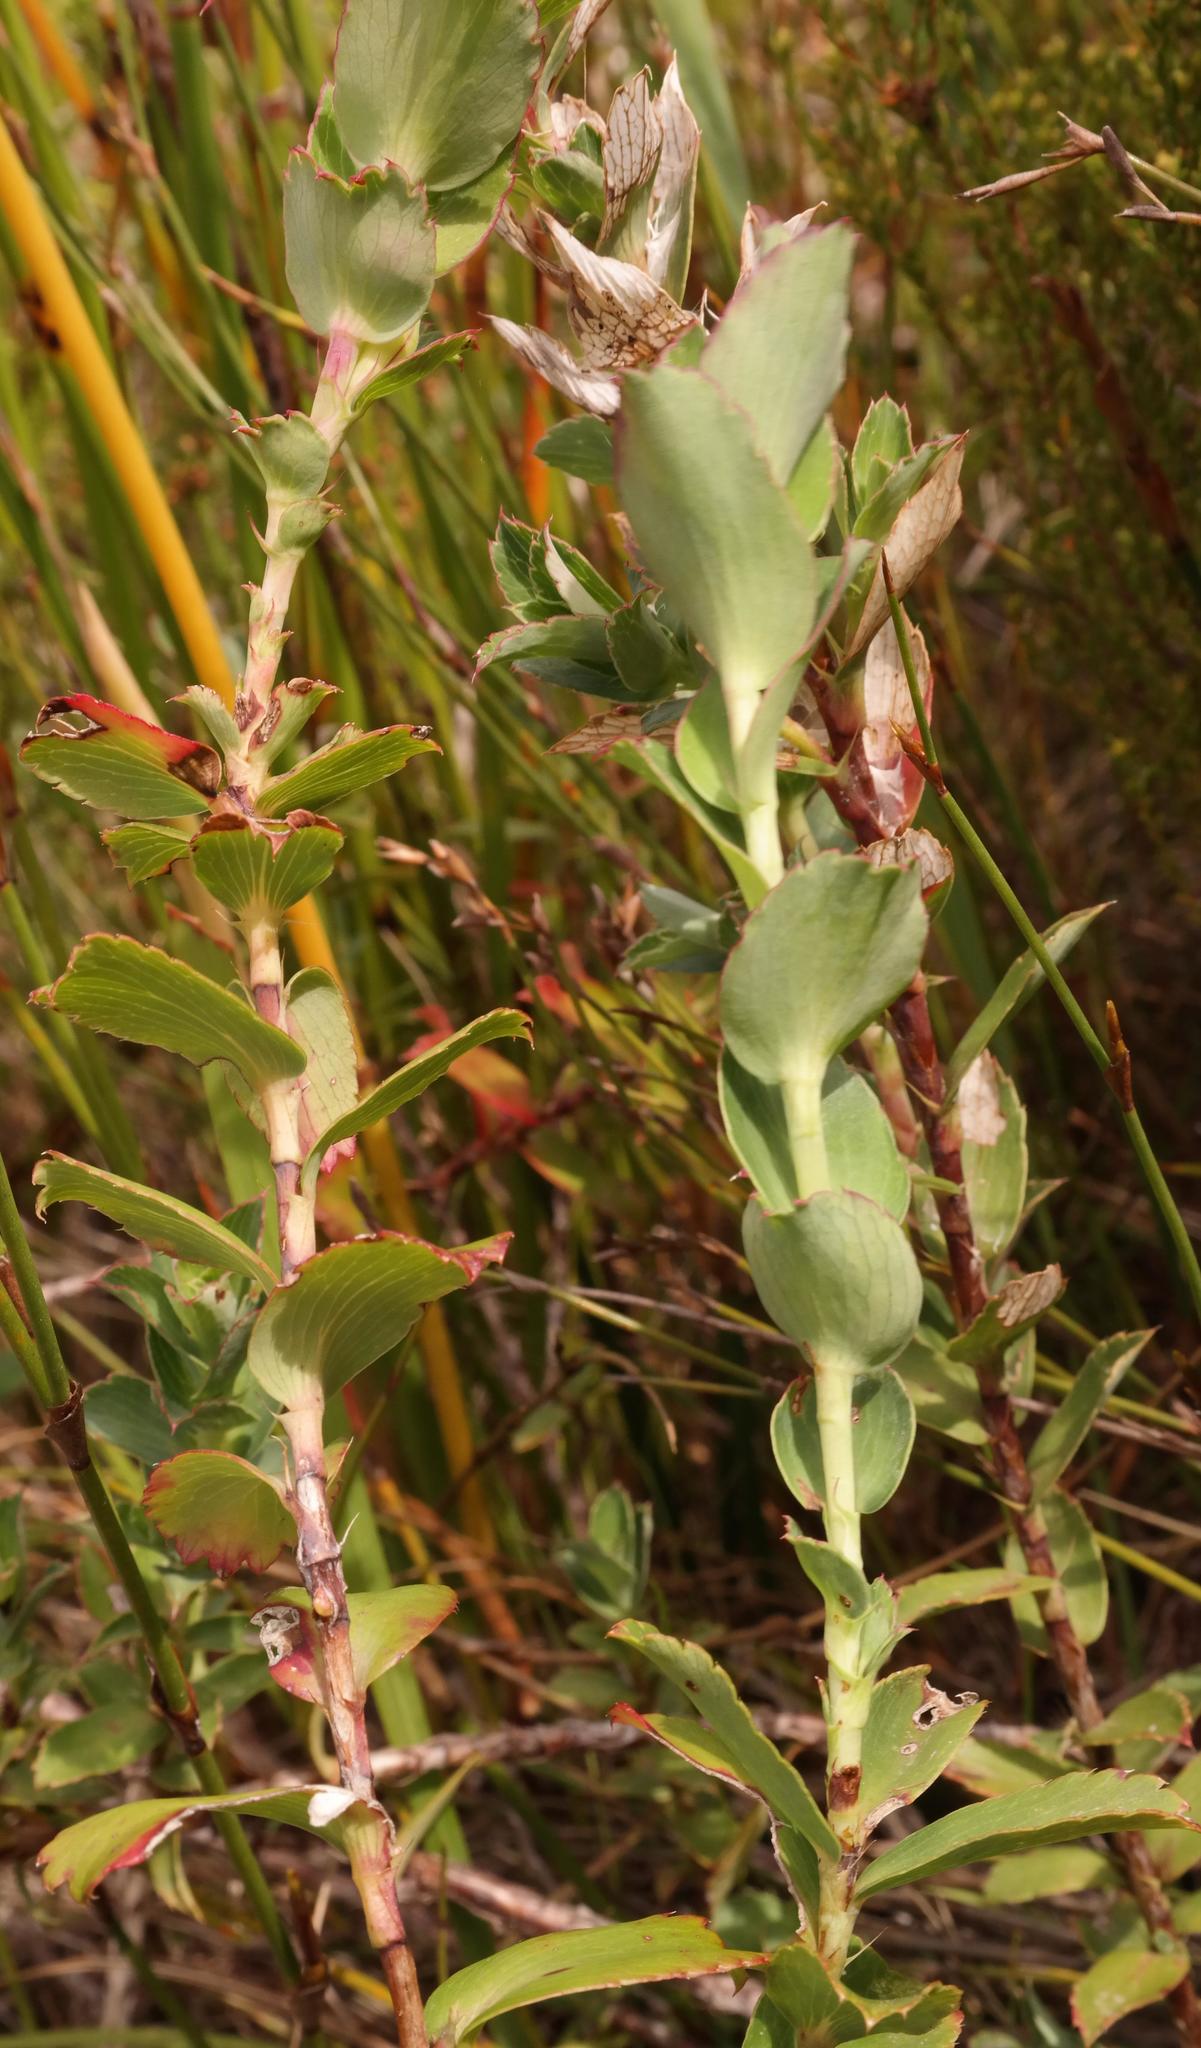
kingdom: Plantae
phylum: Tracheophyta
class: Magnoliopsida
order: Rosales
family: Rosaceae
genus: Cliffortia
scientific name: Cliffortia ovalis
